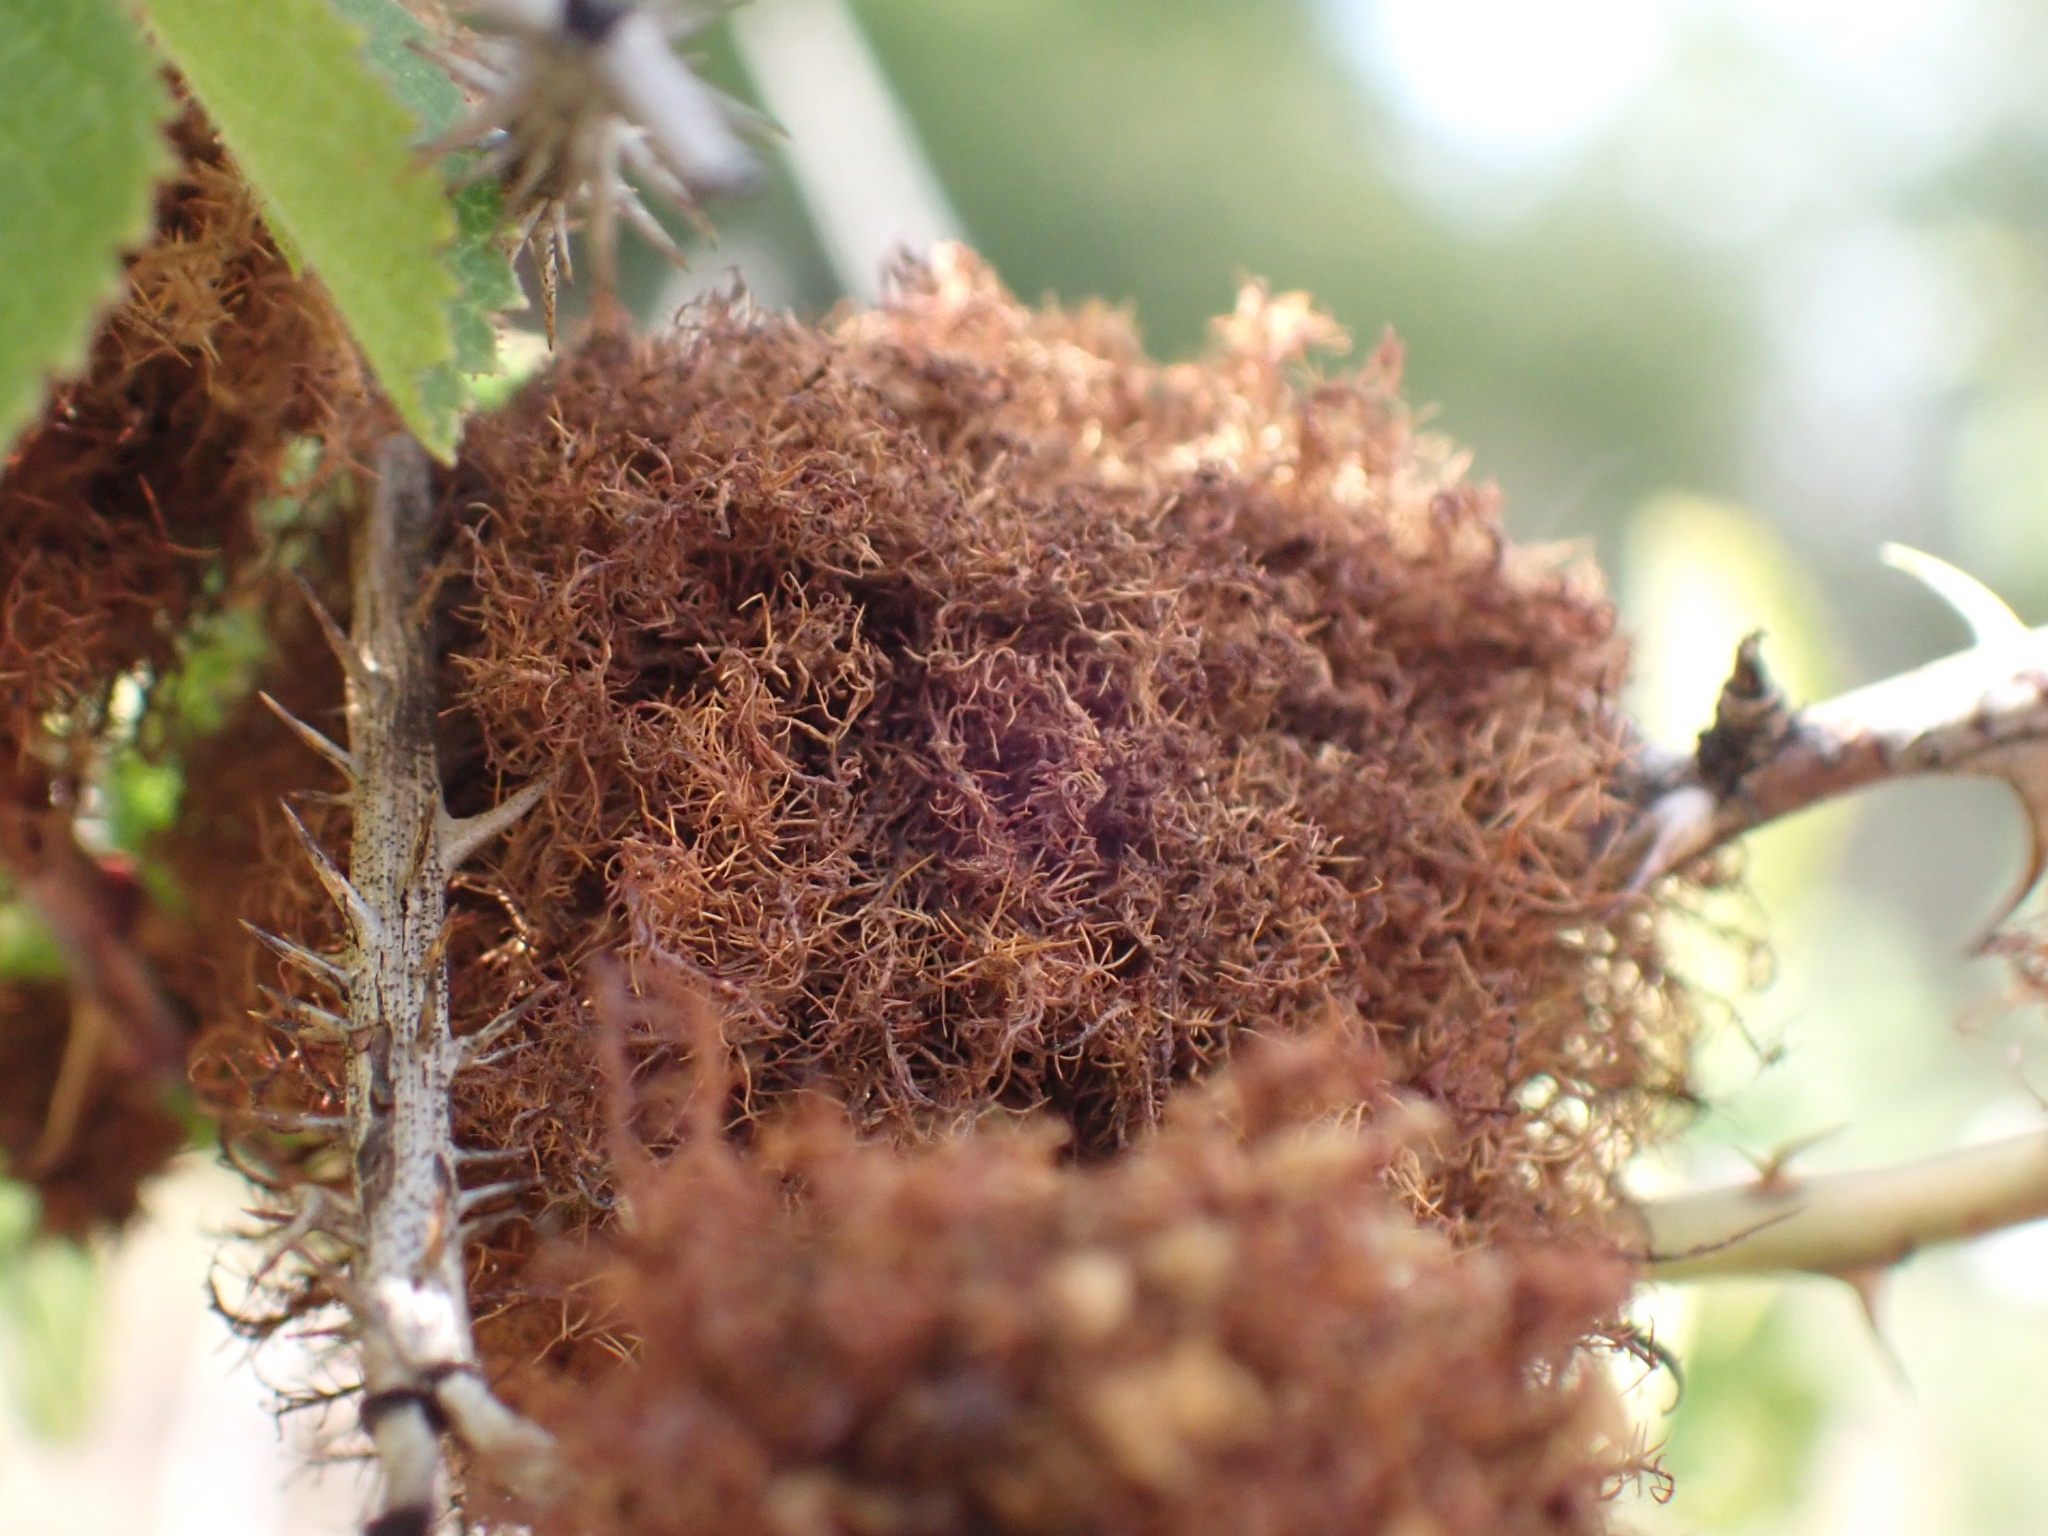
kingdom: Animalia
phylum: Arthropoda
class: Insecta
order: Hymenoptera
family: Cynipidae
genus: Diplolepis
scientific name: Diplolepis rosae
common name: Bedeguar gall
